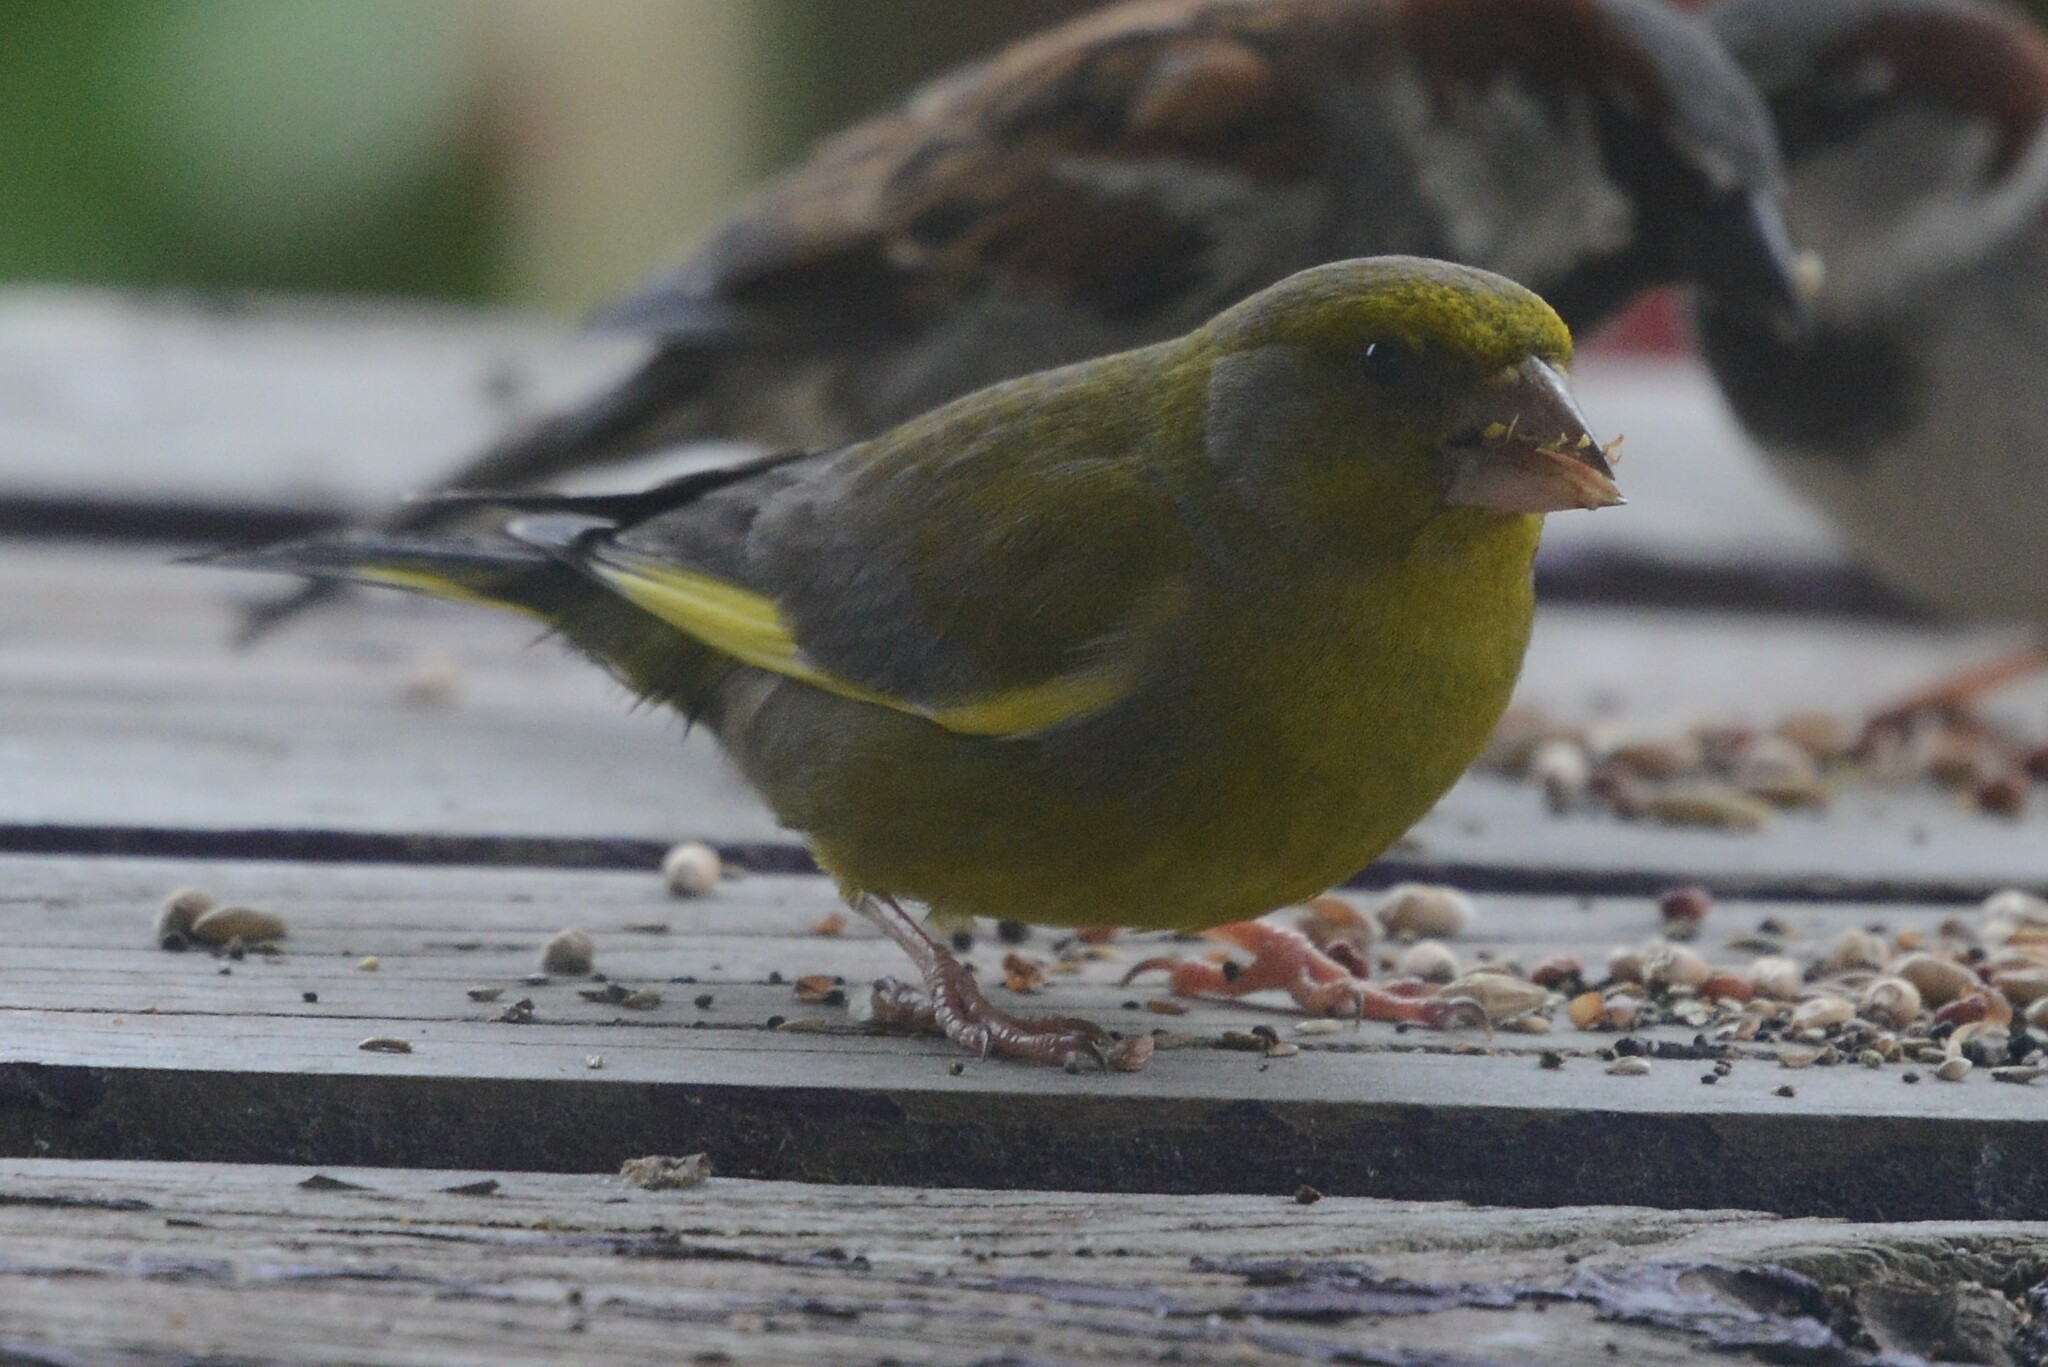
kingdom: Plantae
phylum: Tracheophyta
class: Liliopsida
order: Poales
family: Poaceae
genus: Chloris
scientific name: Chloris chloris
